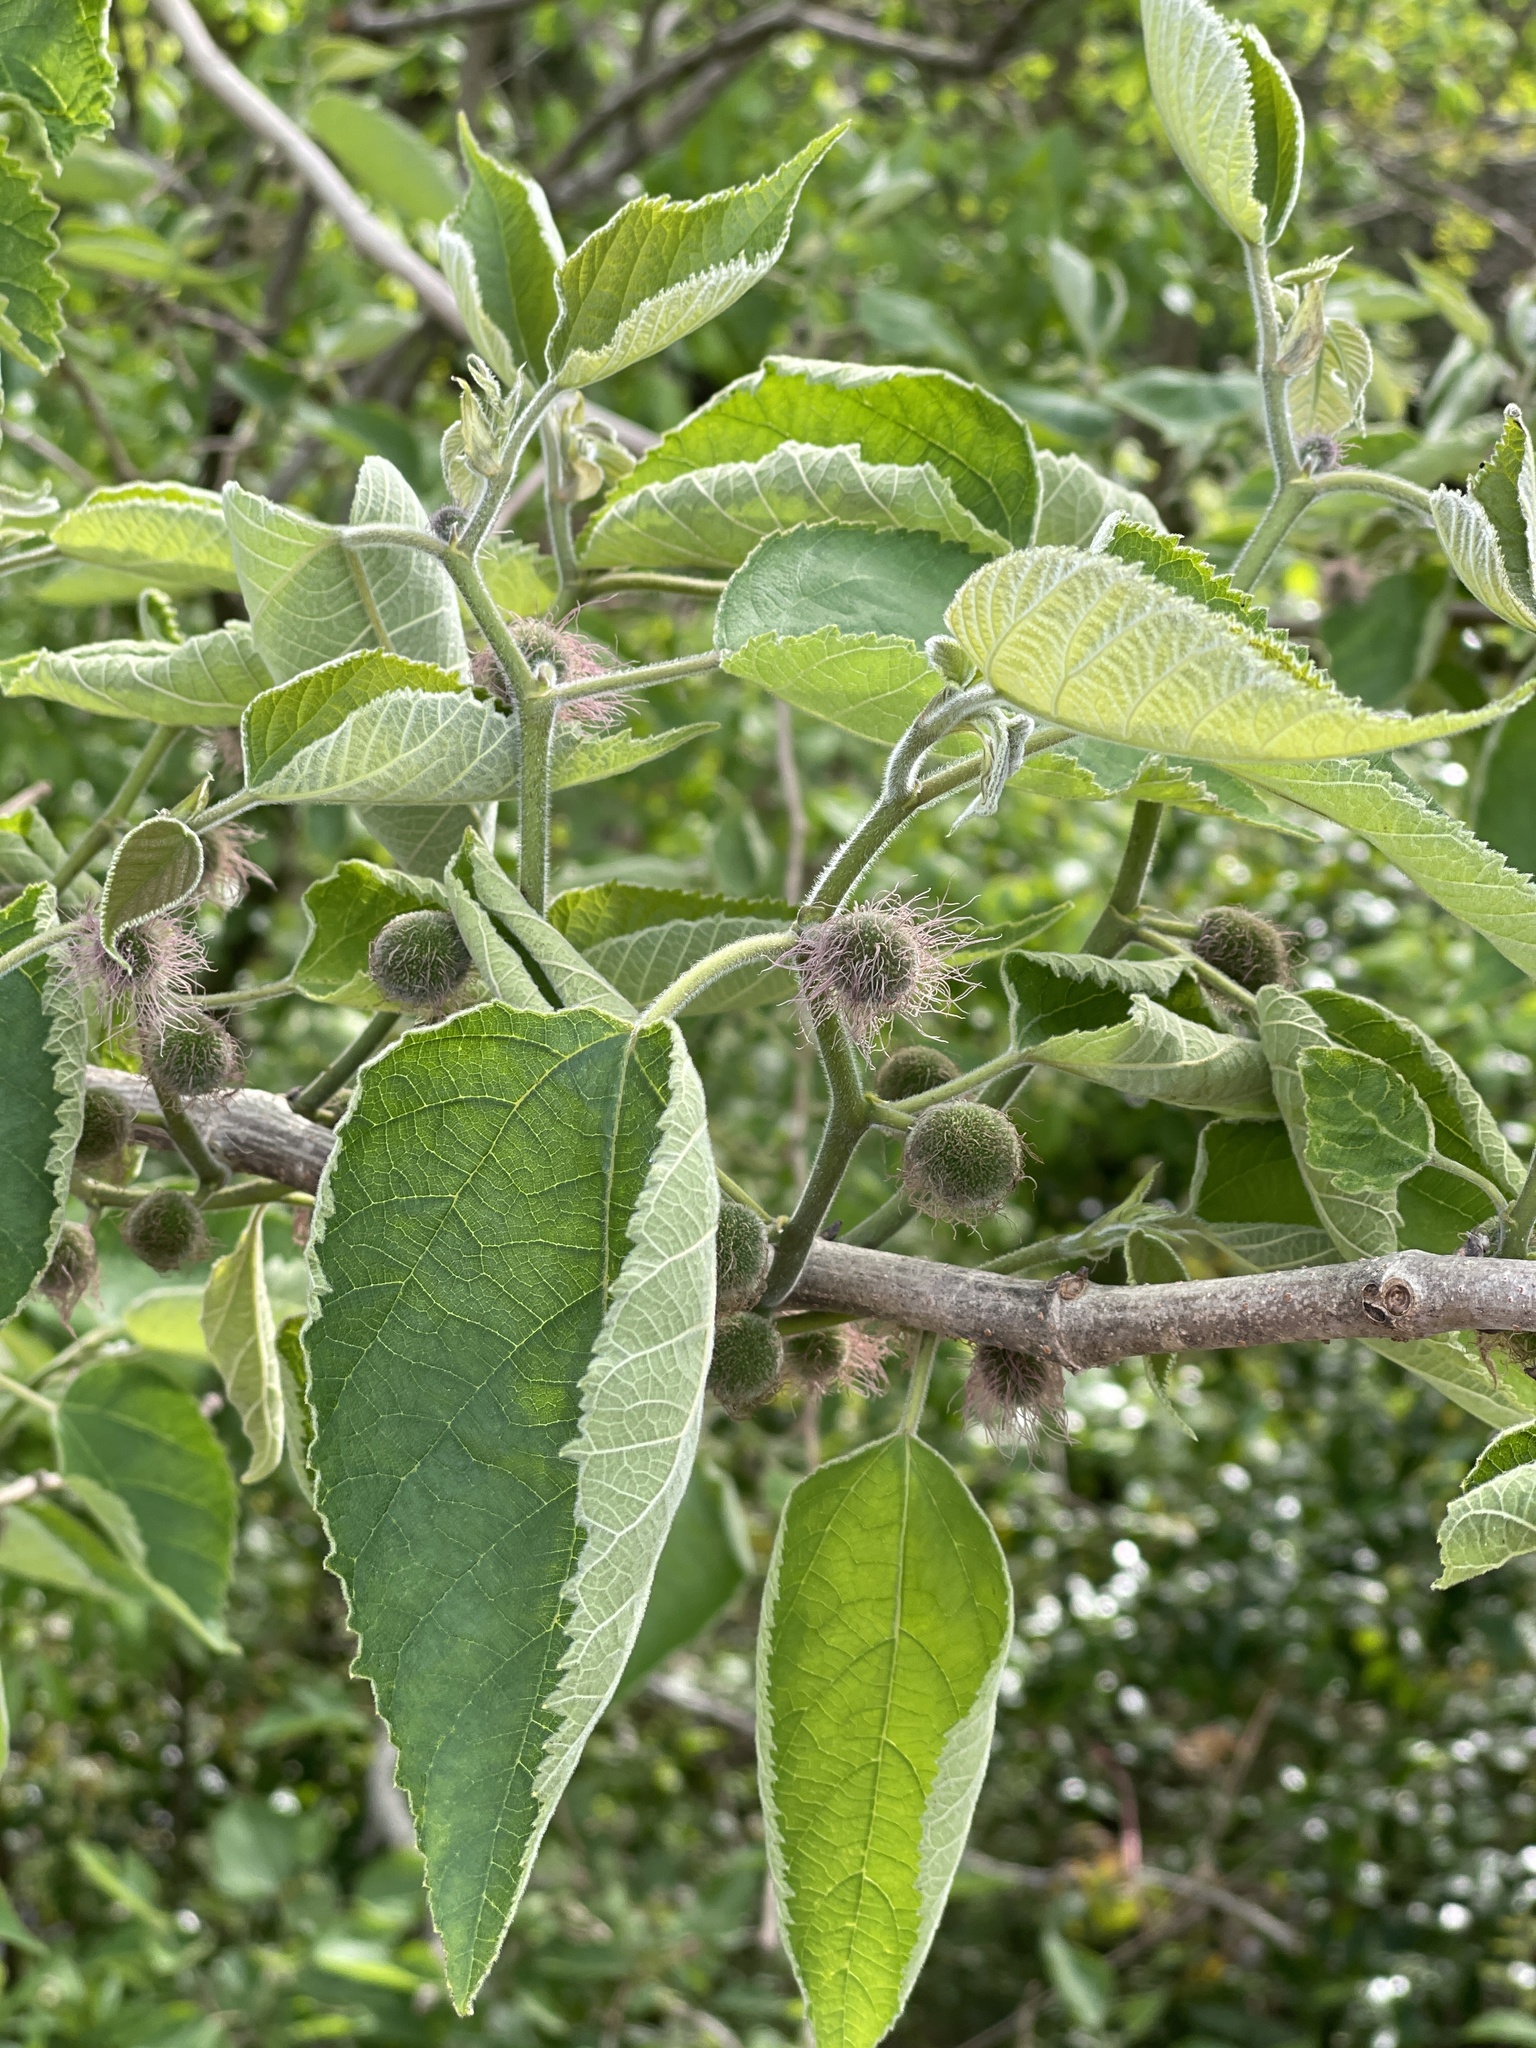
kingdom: Plantae
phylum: Tracheophyta
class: Magnoliopsida
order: Rosales
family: Moraceae
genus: Broussonetia
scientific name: Broussonetia papyrifera
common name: Paper mulberry
